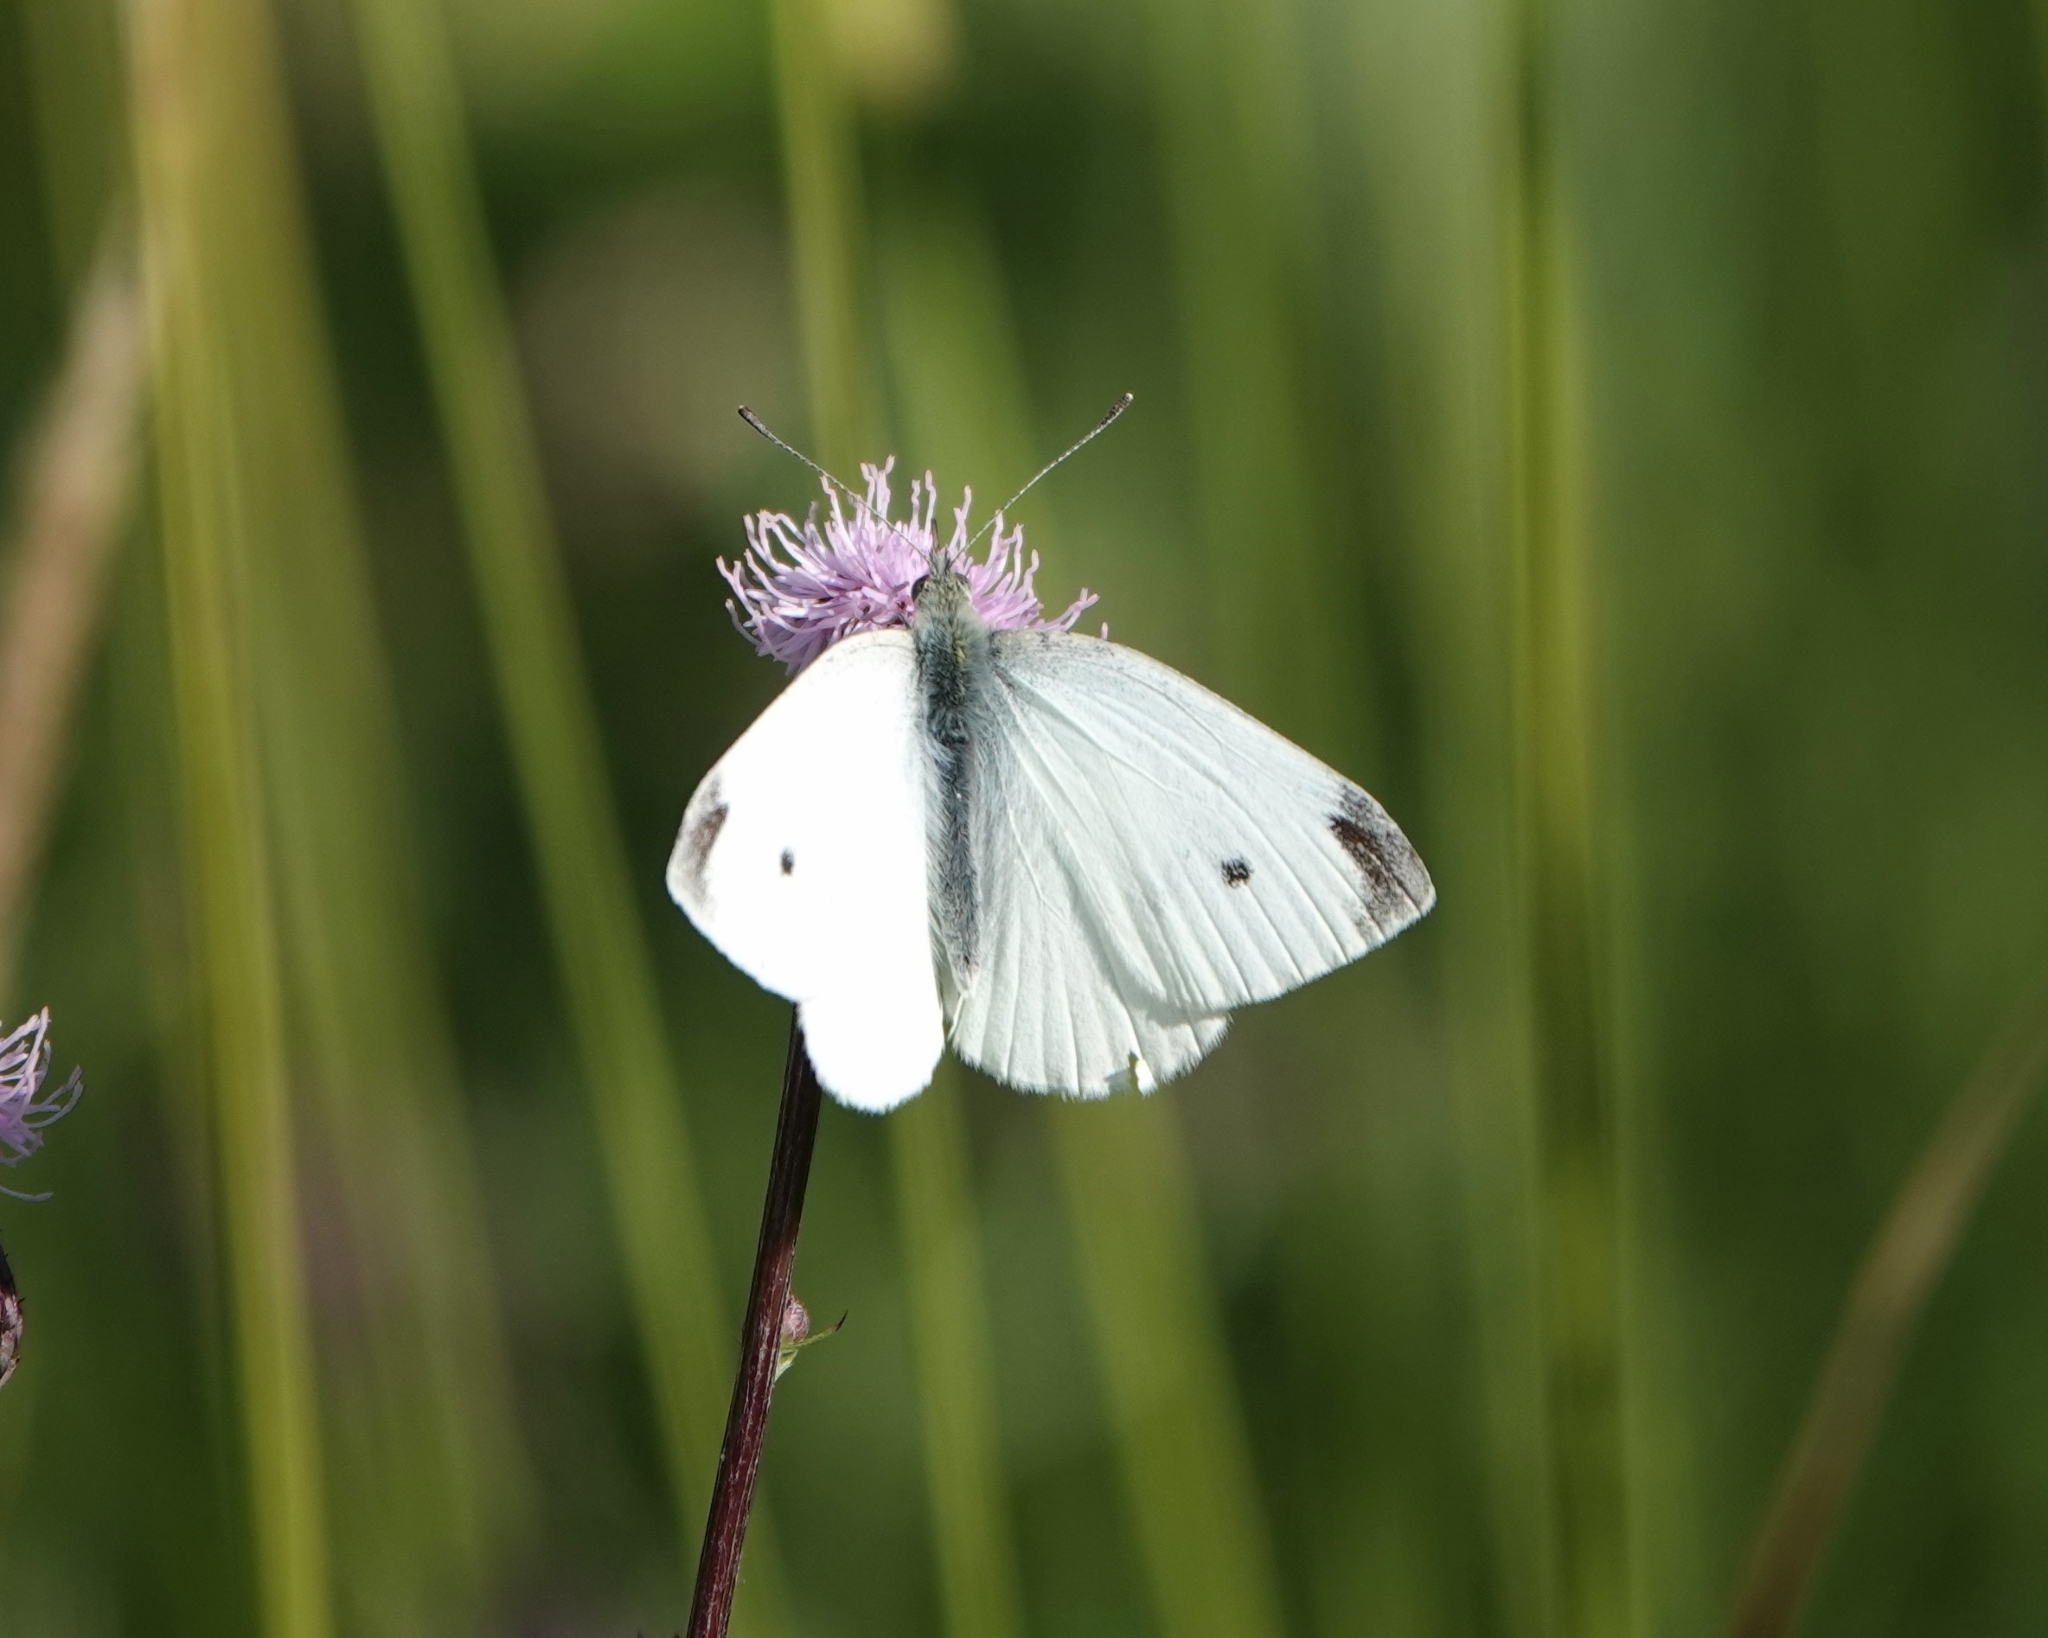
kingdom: Animalia
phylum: Arthropoda
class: Insecta
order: Lepidoptera
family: Pieridae
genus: Pieris
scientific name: Pieris rapae
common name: Small white
